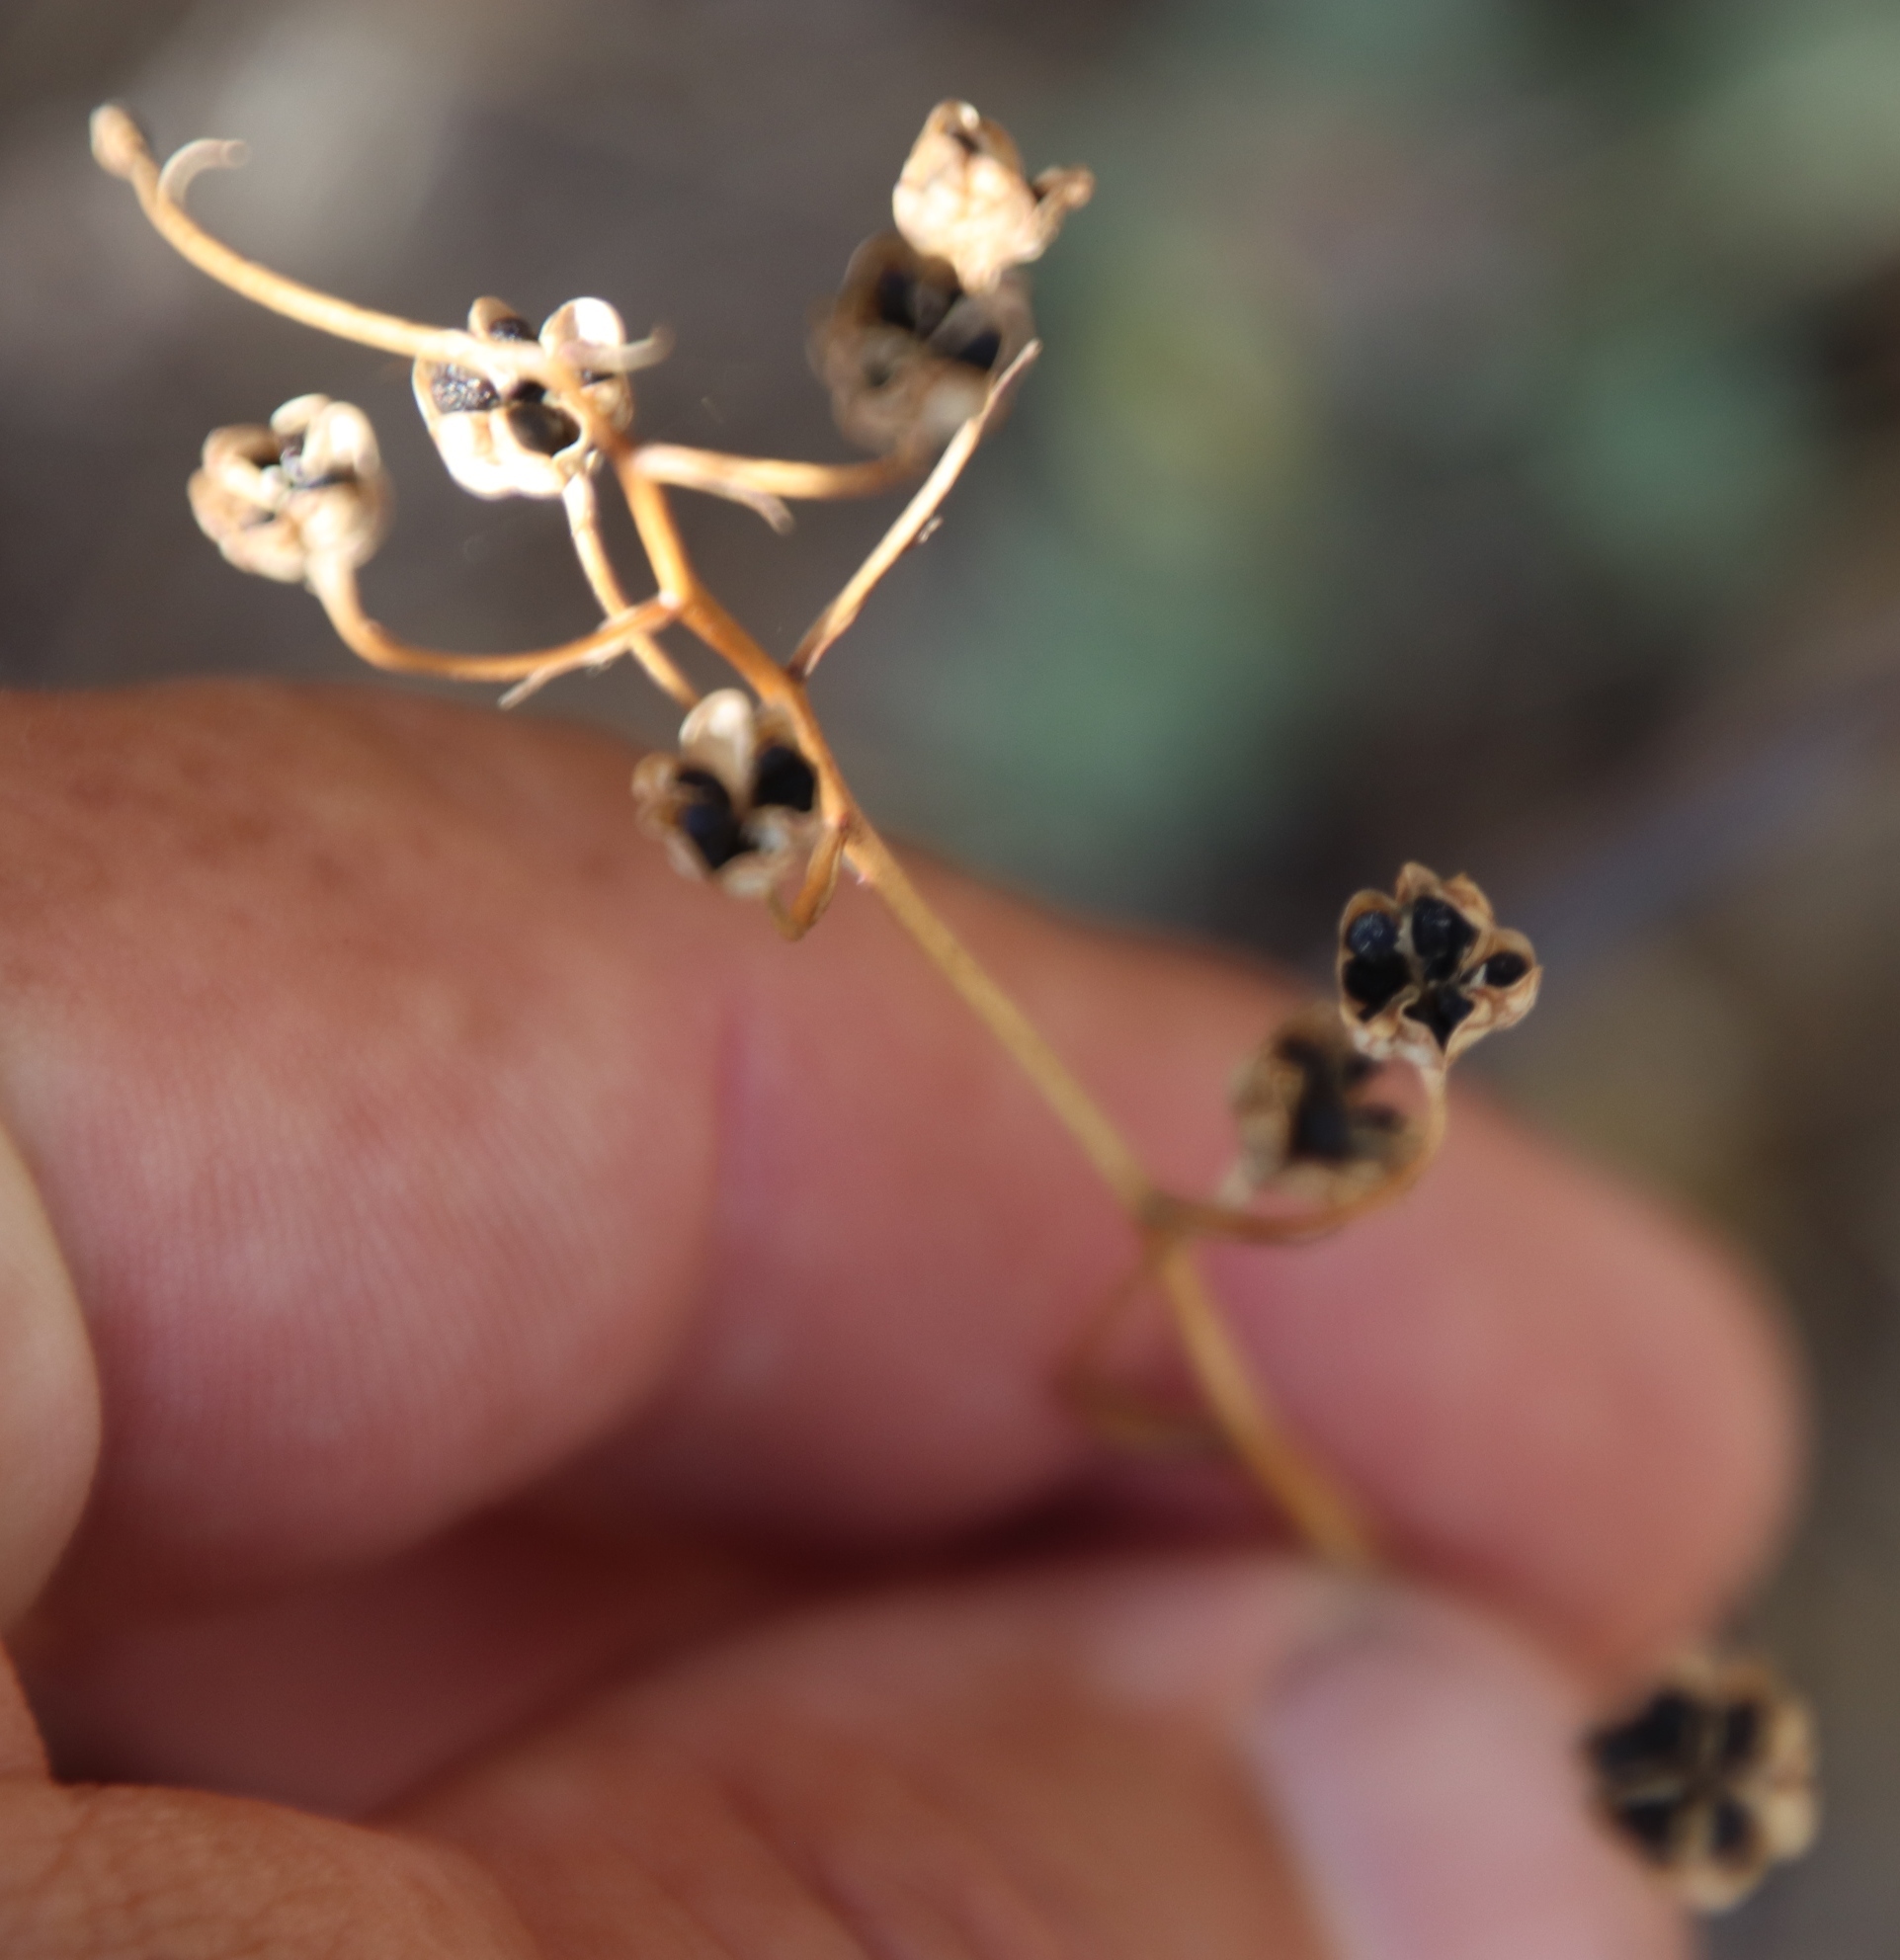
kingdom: Plantae
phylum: Tracheophyta
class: Liliopsida
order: Asparagales
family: Tecophilaeaceae
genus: Cyanella
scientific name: Cyanella hyacinthoides
